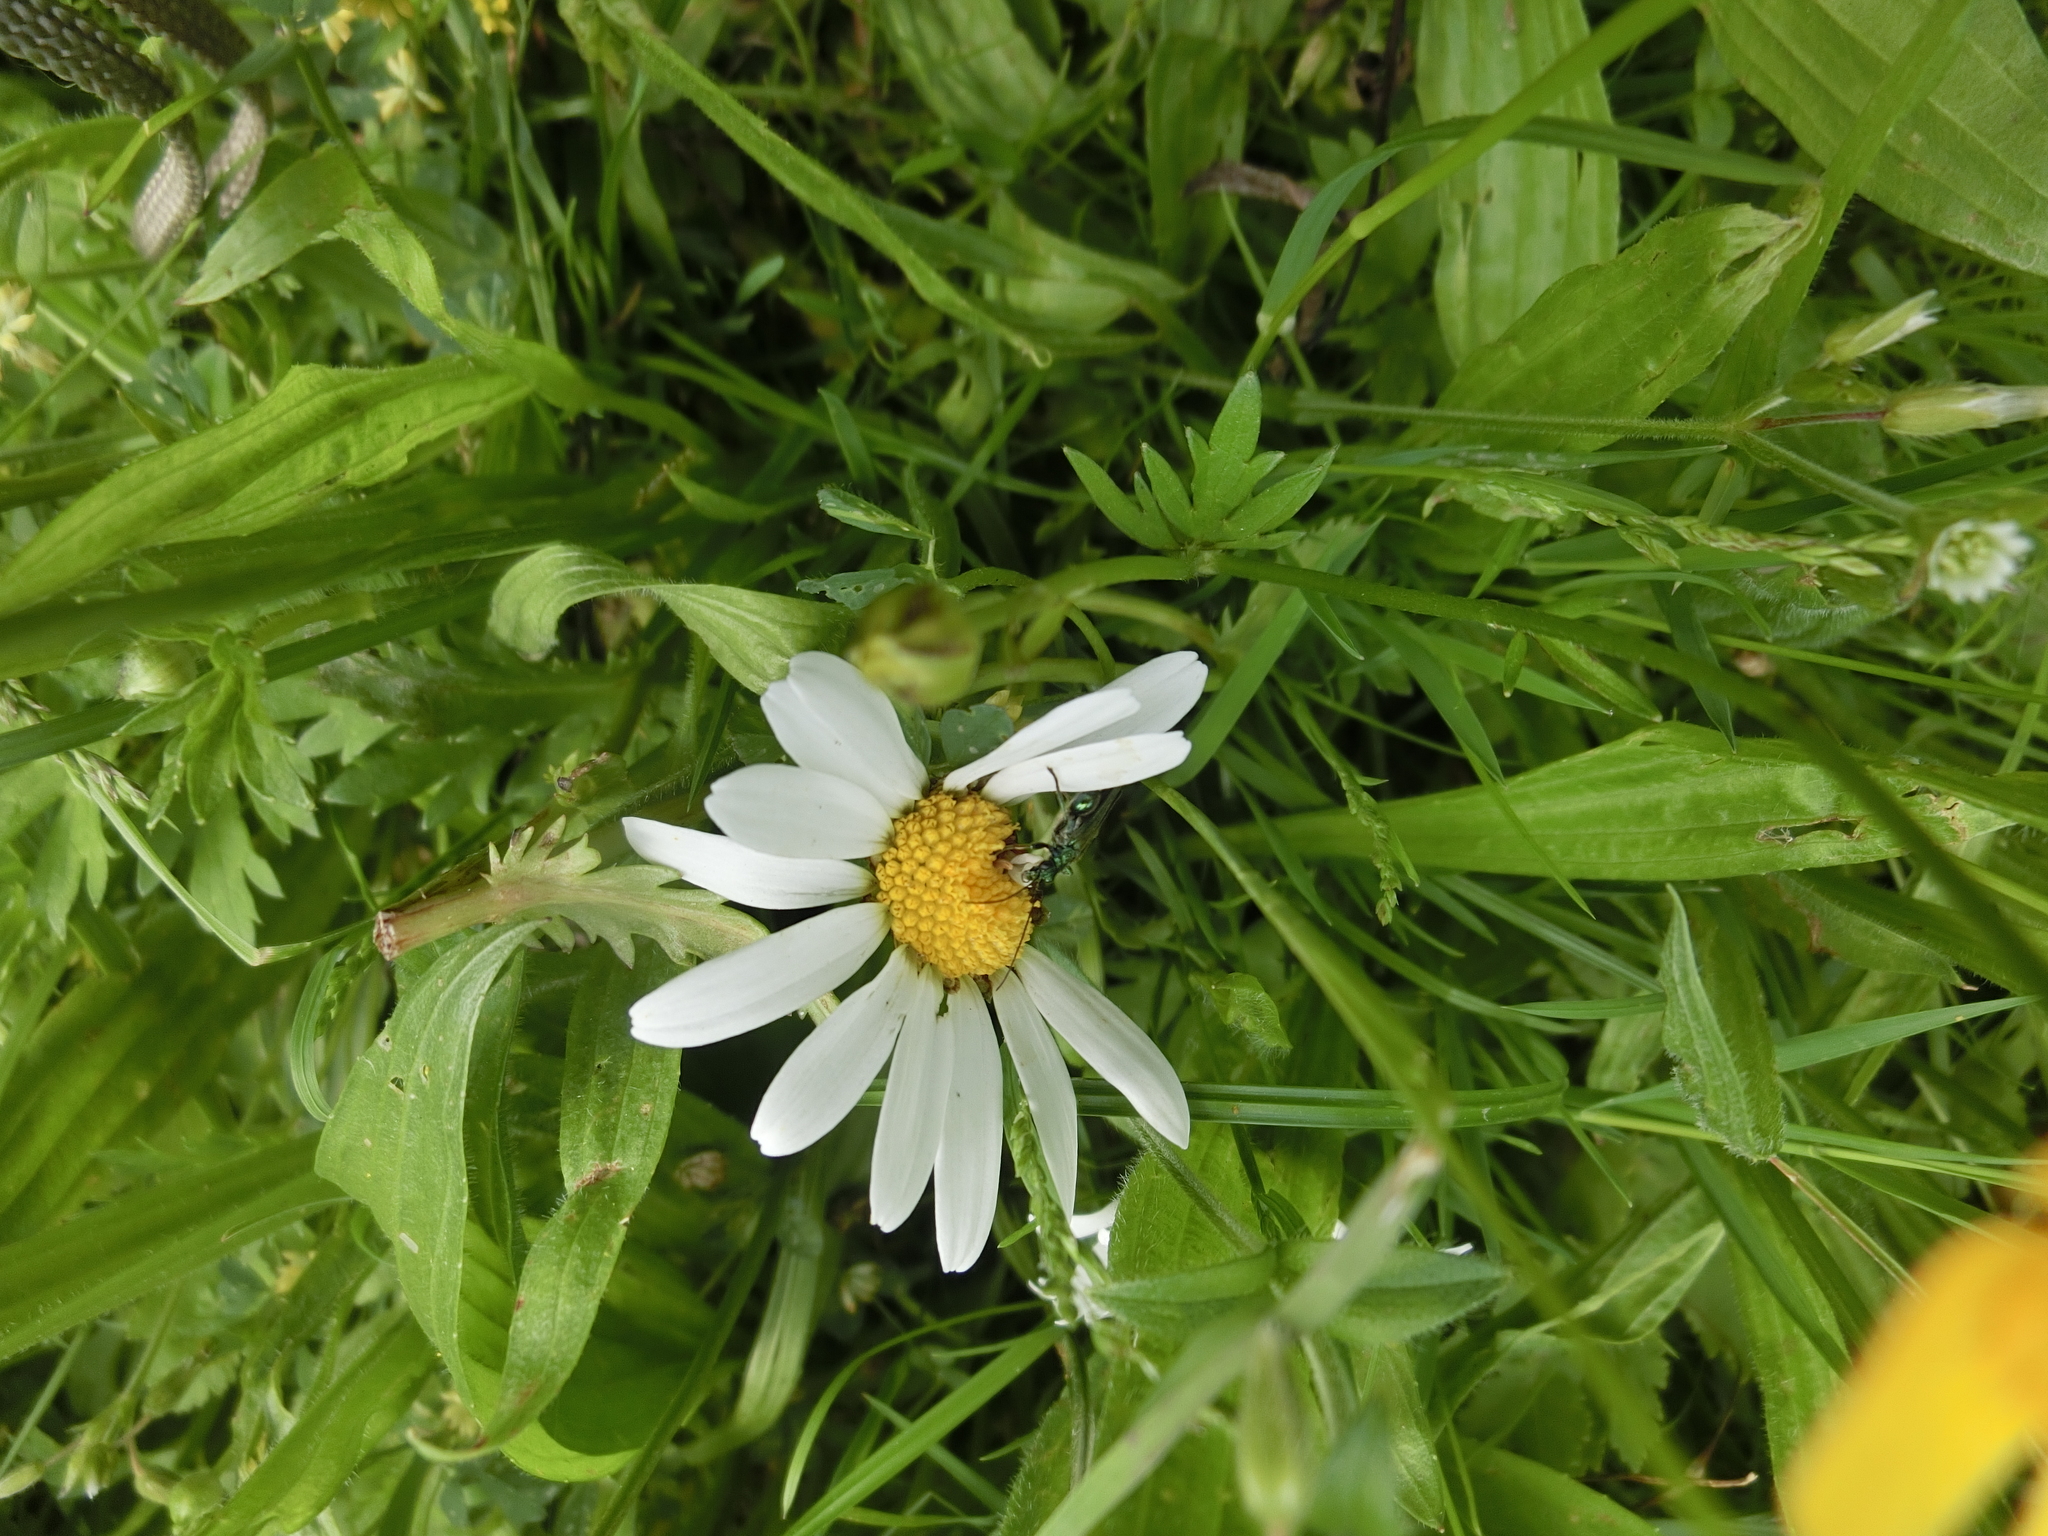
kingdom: Animalia
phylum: Arthropoda
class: Insecta
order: Coleoptera
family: Oedemeridae
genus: Oedemera
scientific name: Oedemera nobilis
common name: Swollen-thighed beetle
